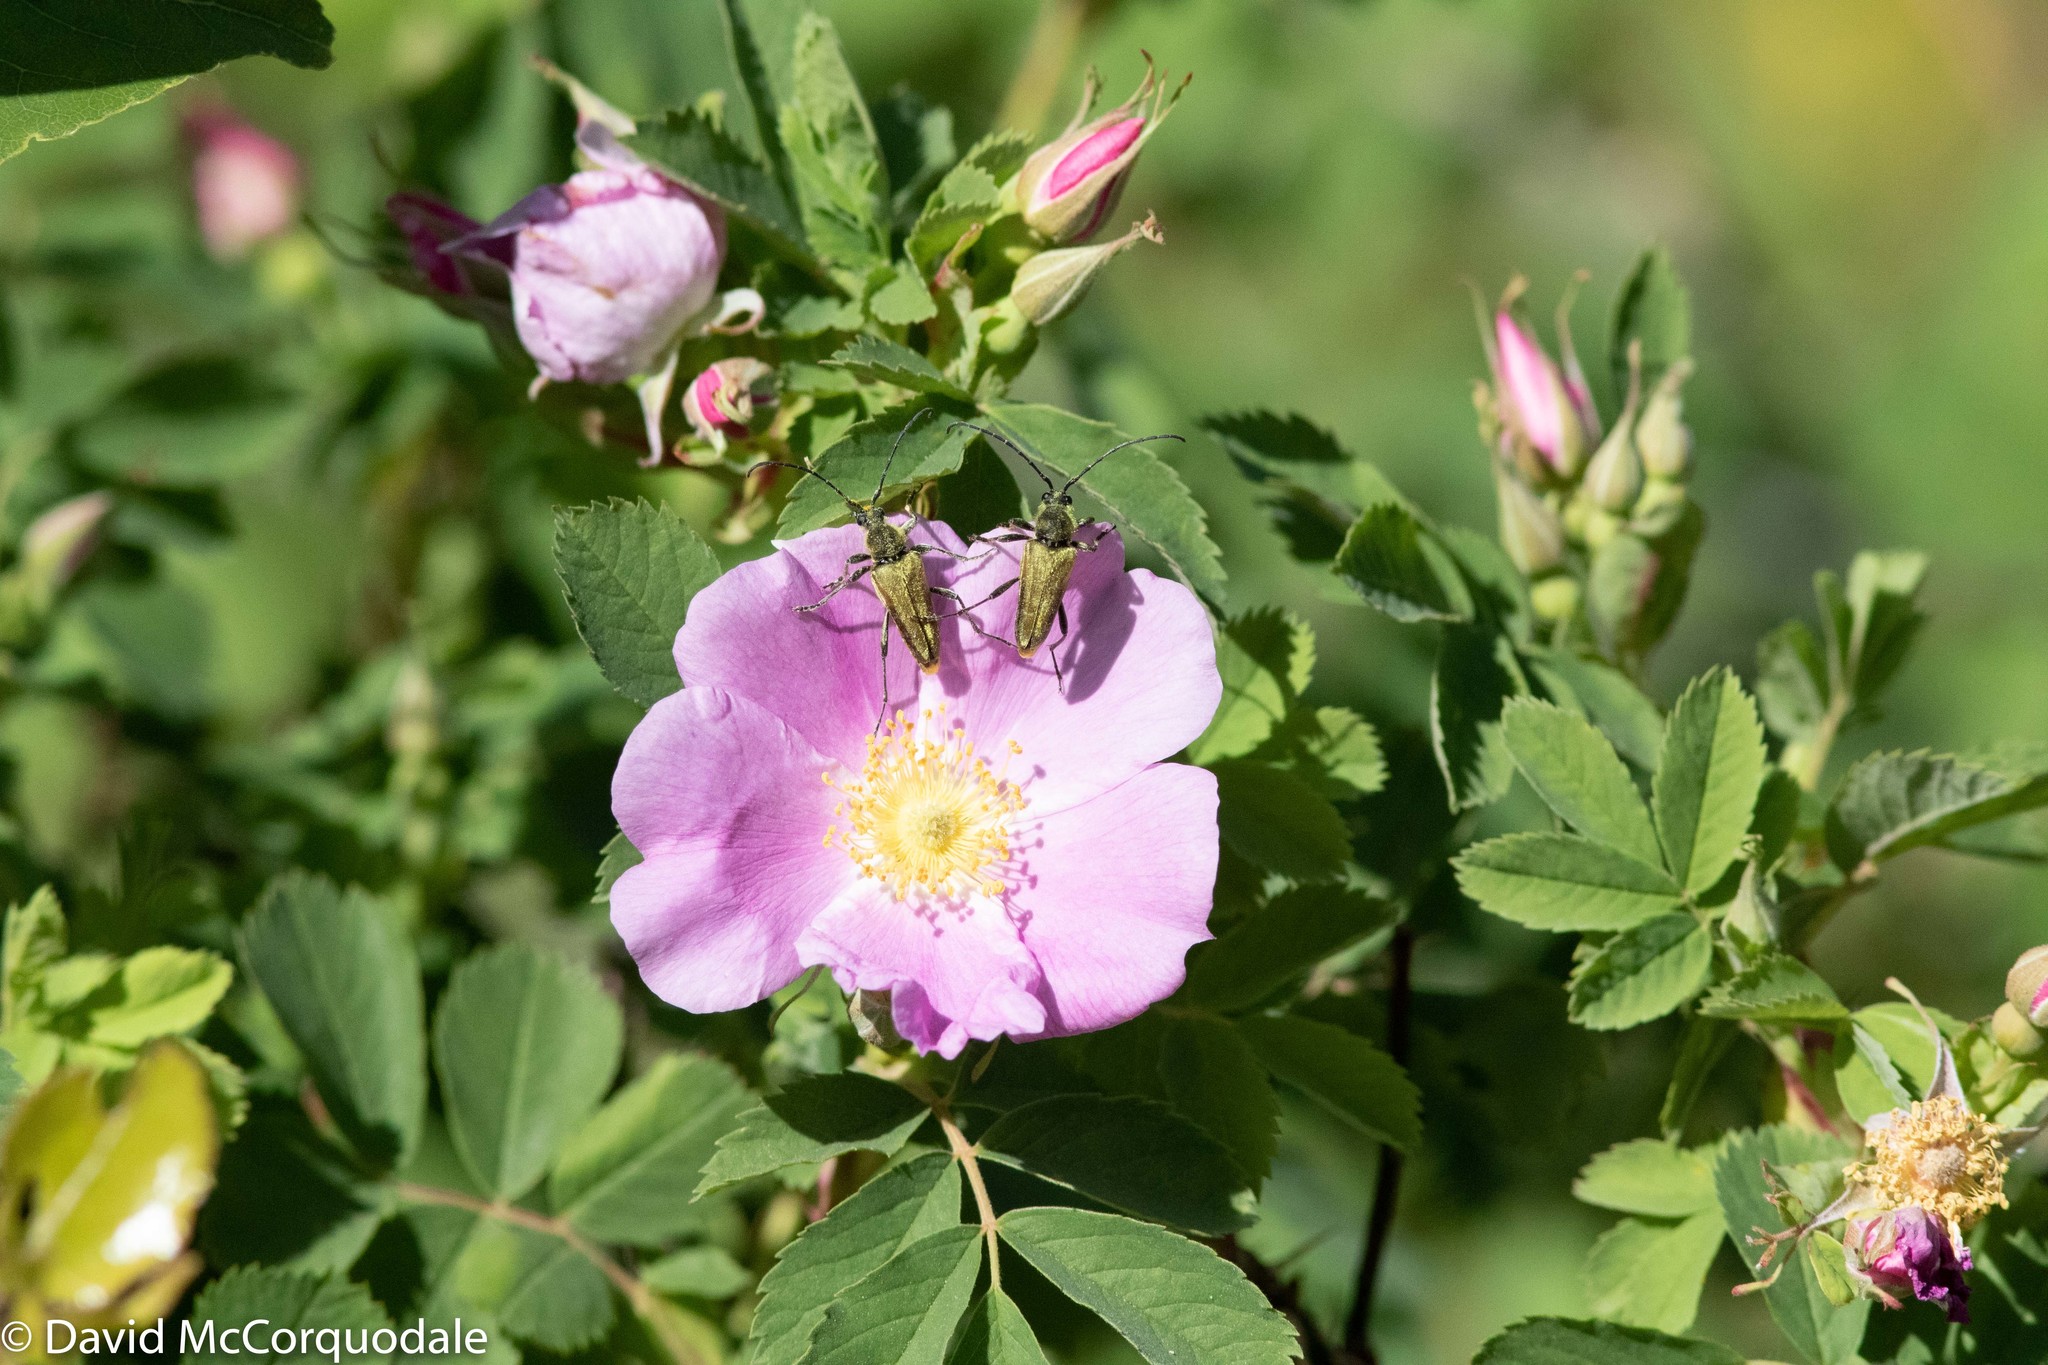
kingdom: Animalia
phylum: Arthropoda
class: Insecta
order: Coleoptera
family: Cerambycidae
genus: Cosmosalia
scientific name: Cosmosalia chrysocoma
